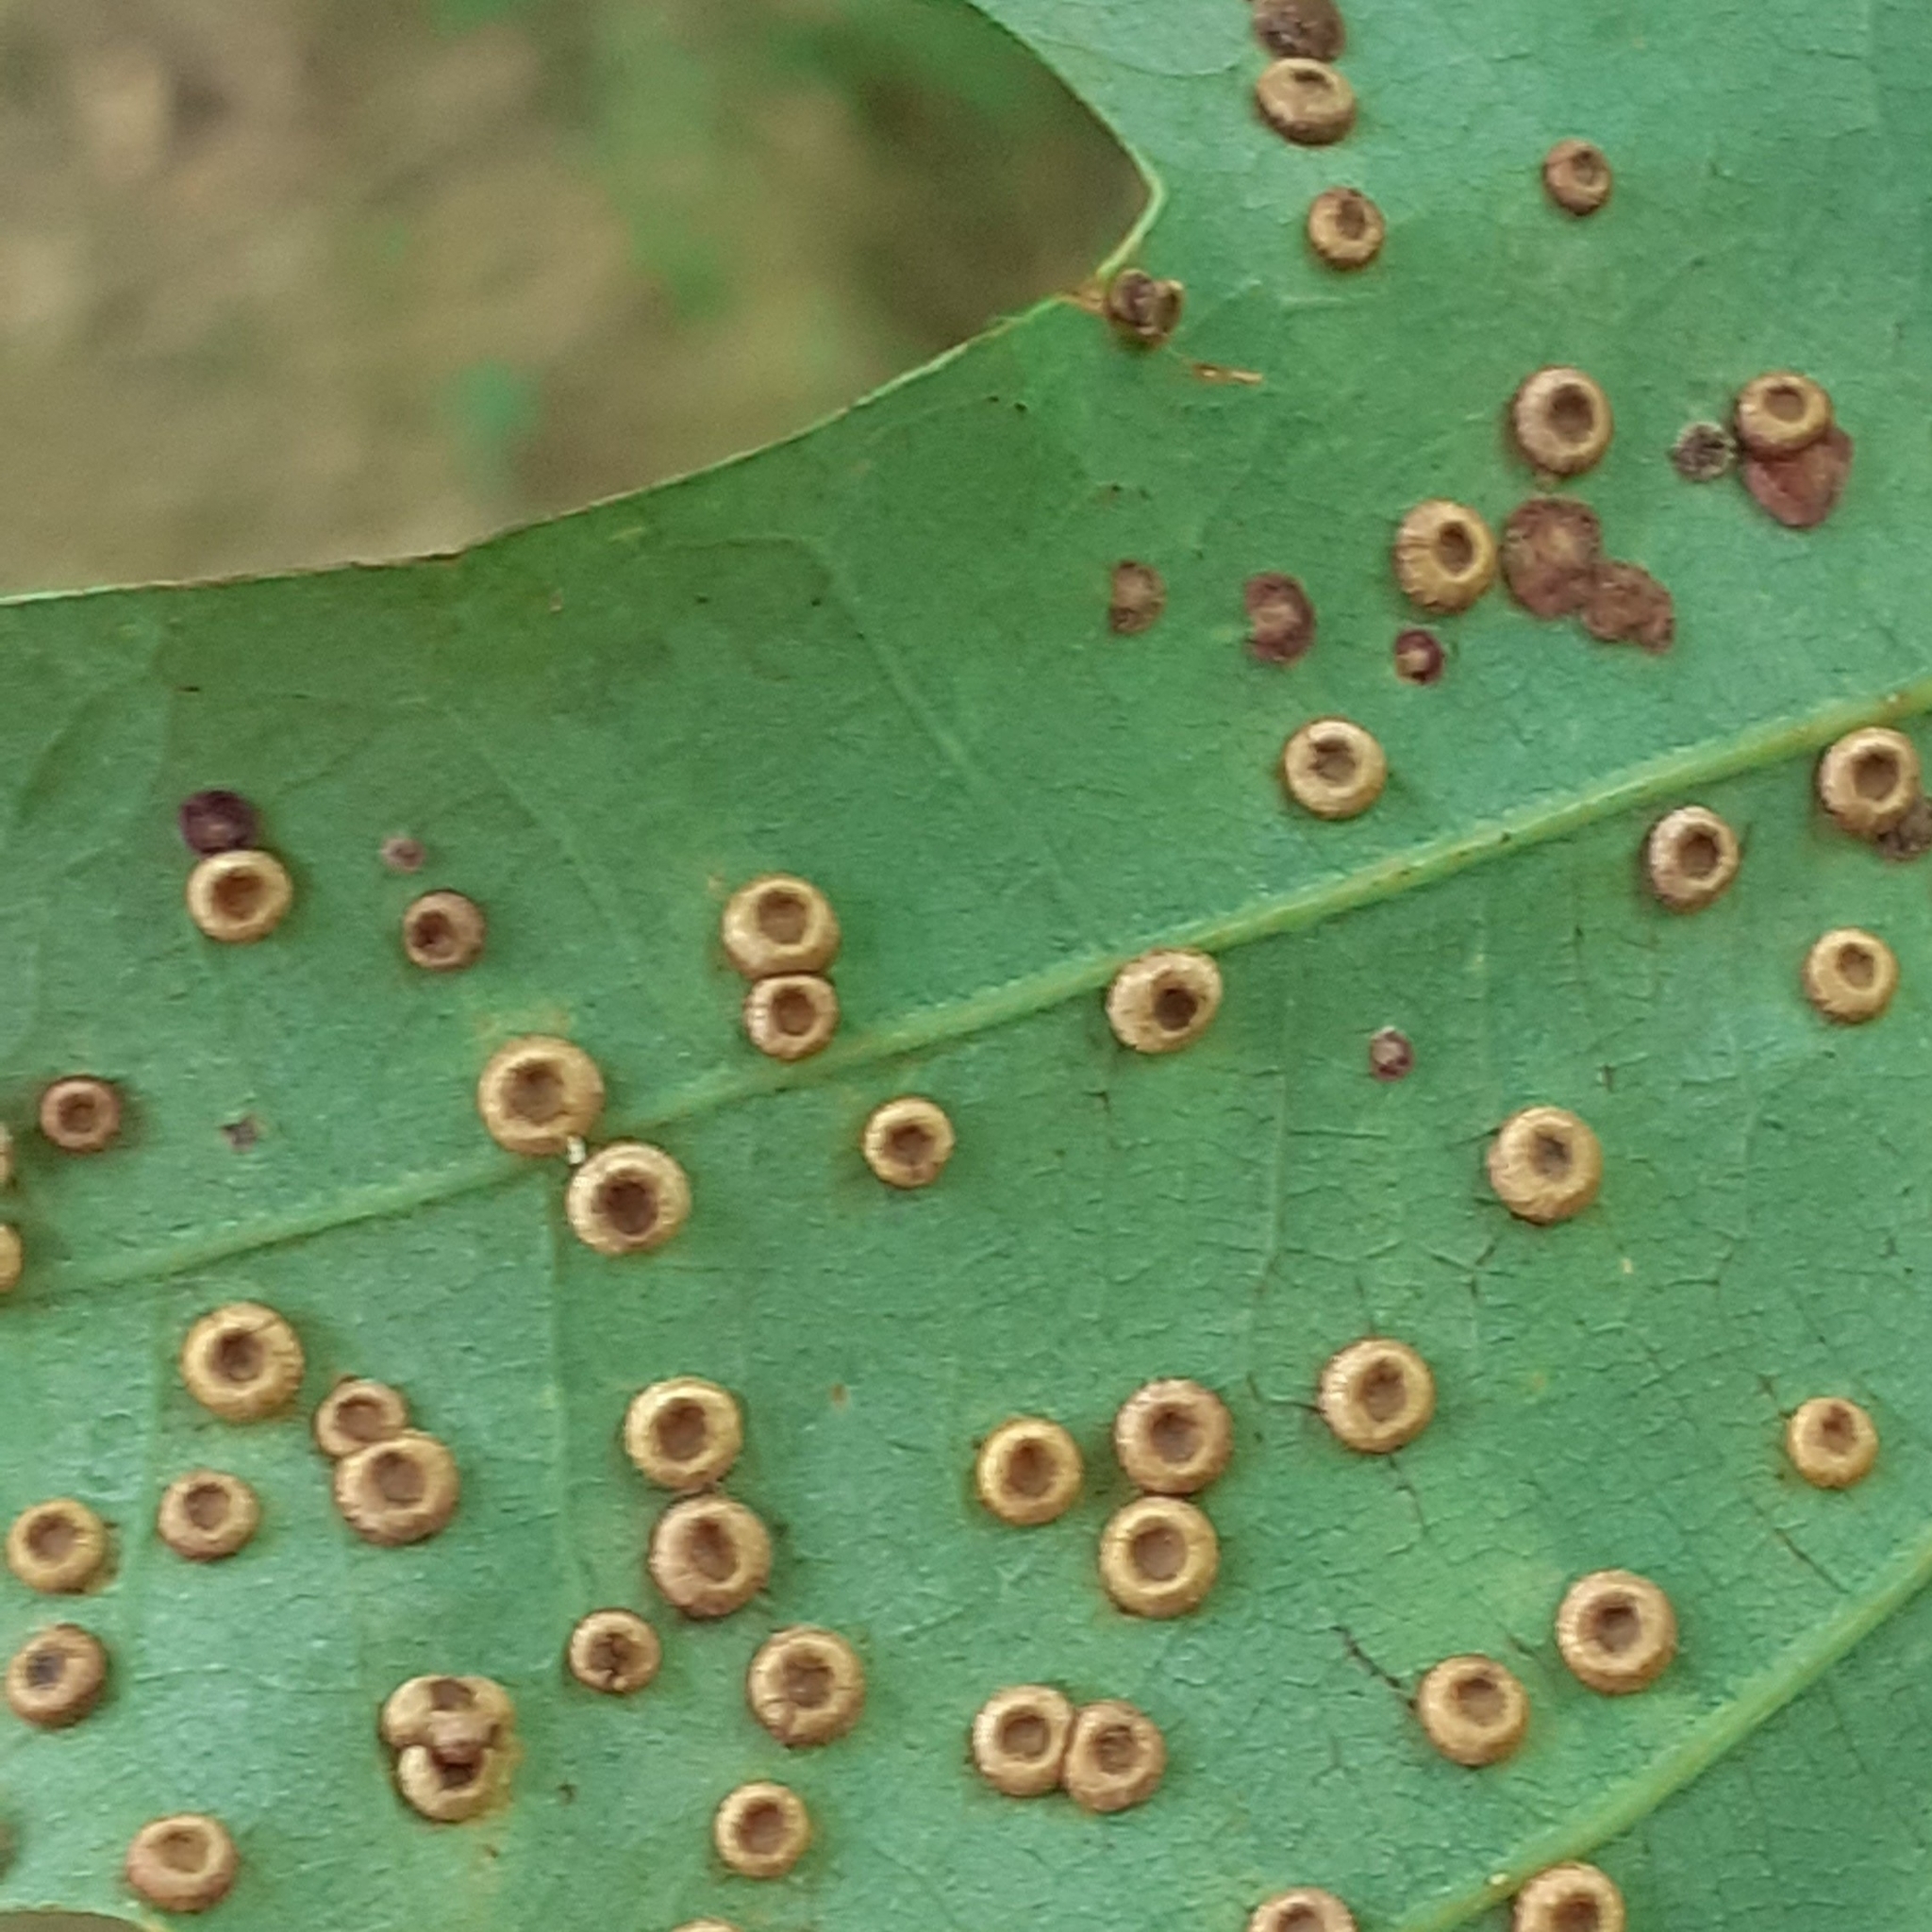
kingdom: Animalia
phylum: Arthropoda
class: Insecta
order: Hymenoptera
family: Cynipidae
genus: Neuroterus
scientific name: Neuroterus numismalis
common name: Silk-button spangle gall
